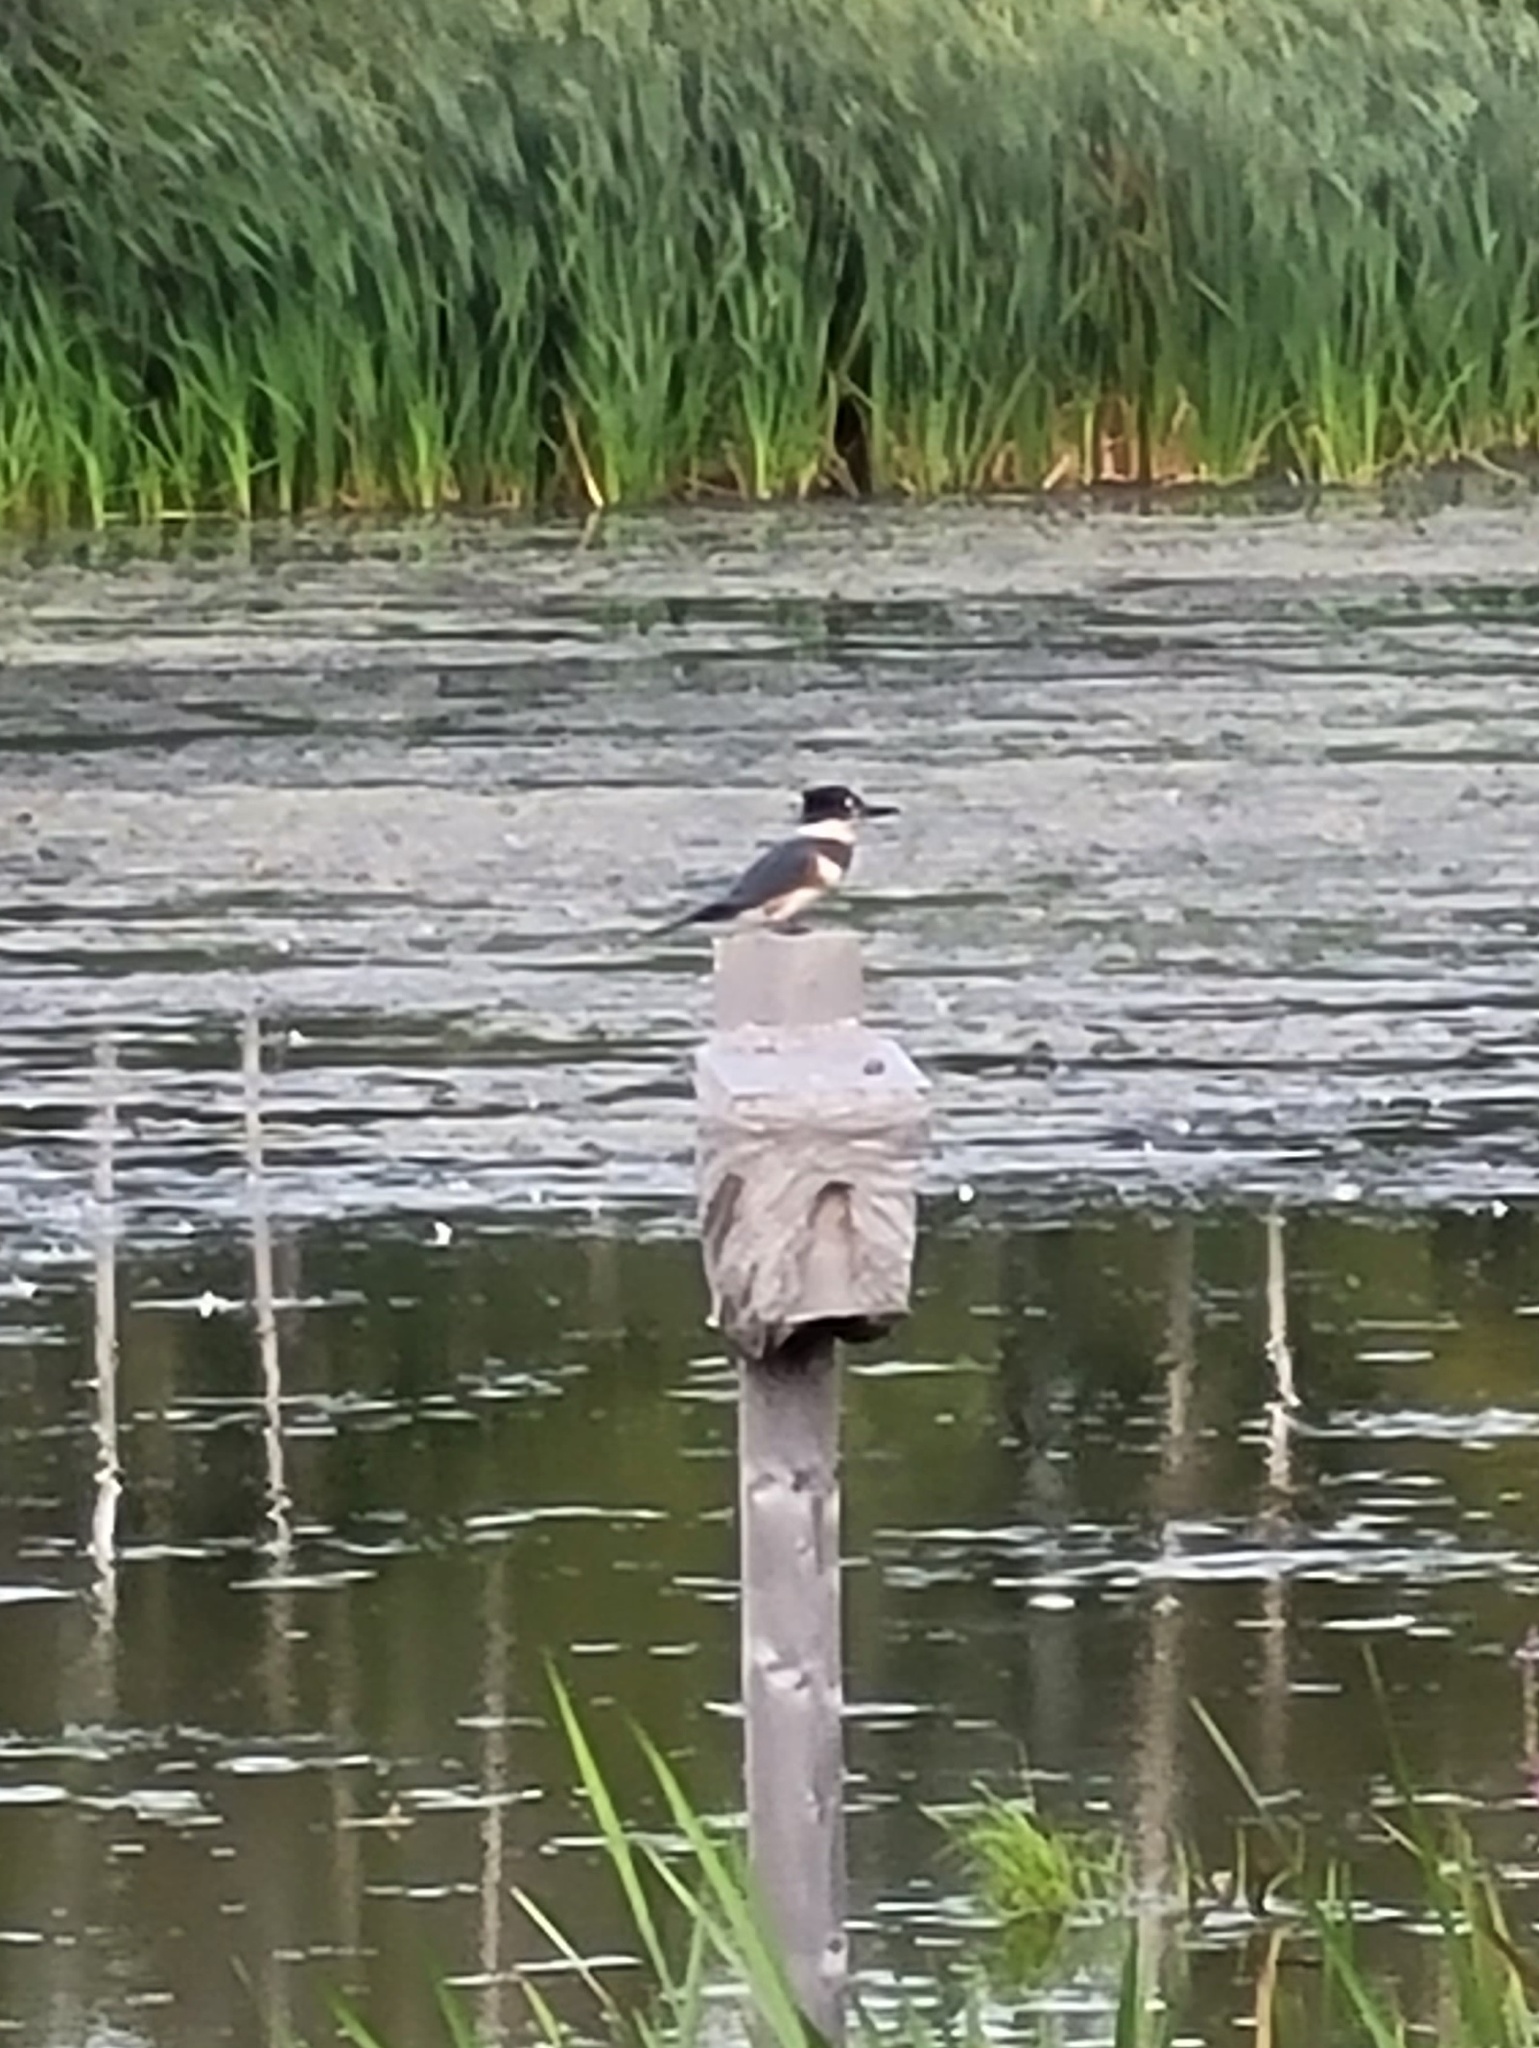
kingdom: Animalia
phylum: Chordata
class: Aves
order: Coraciiformes
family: Alcedinidae
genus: Megaceryle
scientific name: Megaceryle alcyon
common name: Belted kingfisher
